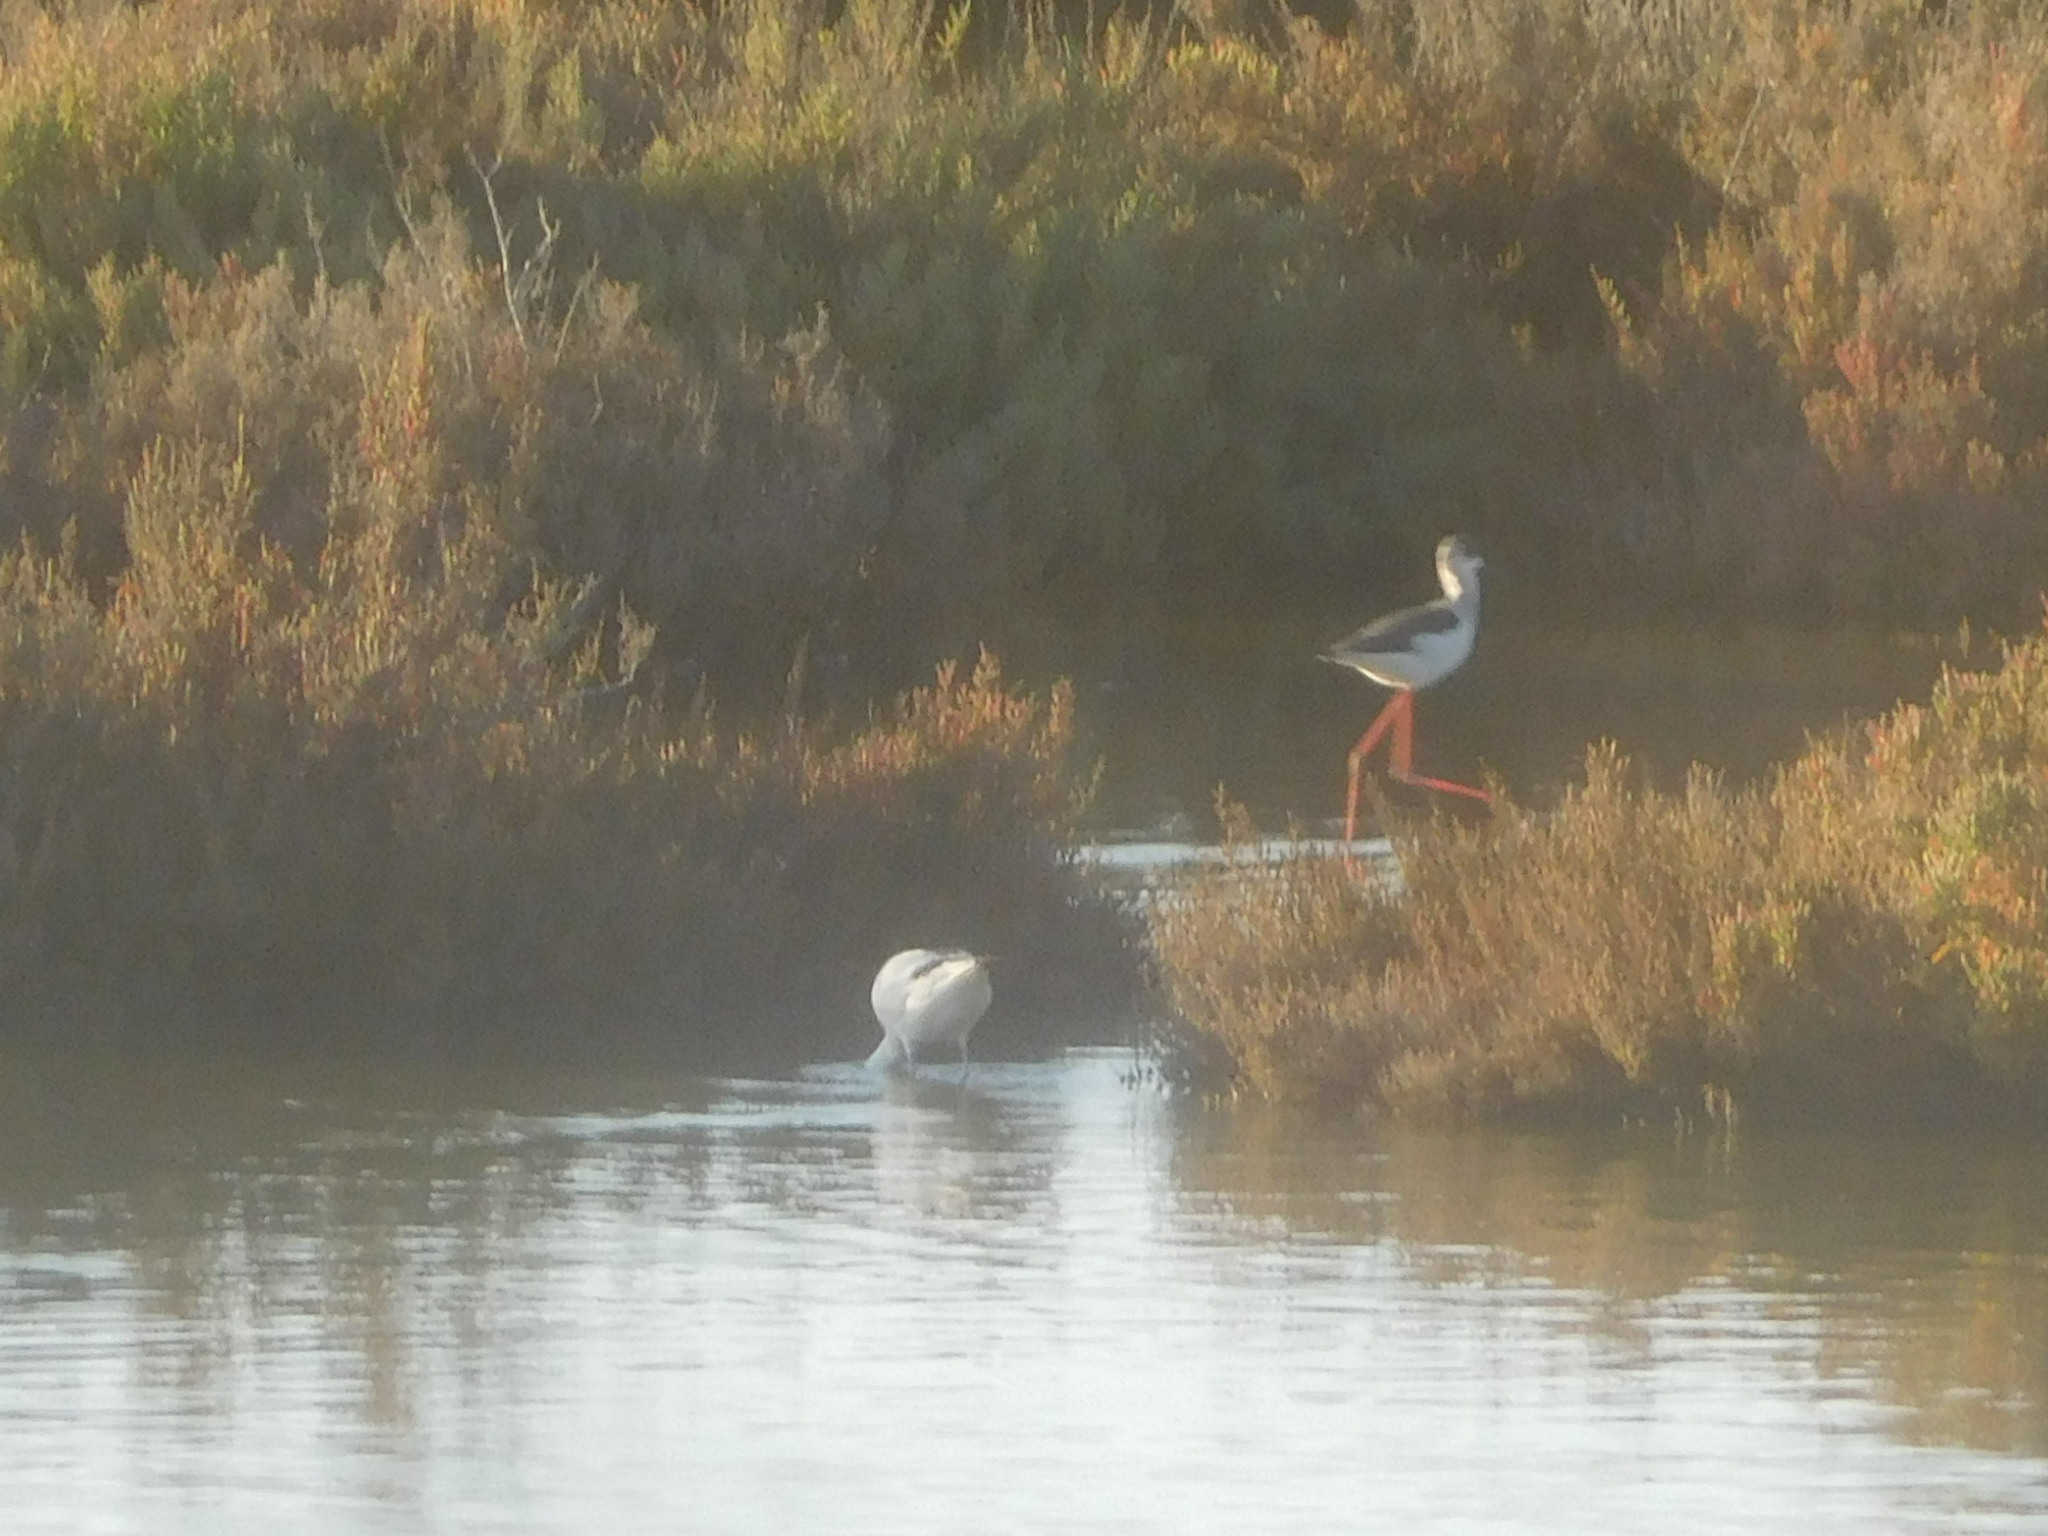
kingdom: Animalia
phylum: Chordata
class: Aves
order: Charadriiformes
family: Recurvirostridae
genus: Himantopus
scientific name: Himantopus himantopus
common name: Black-winged stilt
